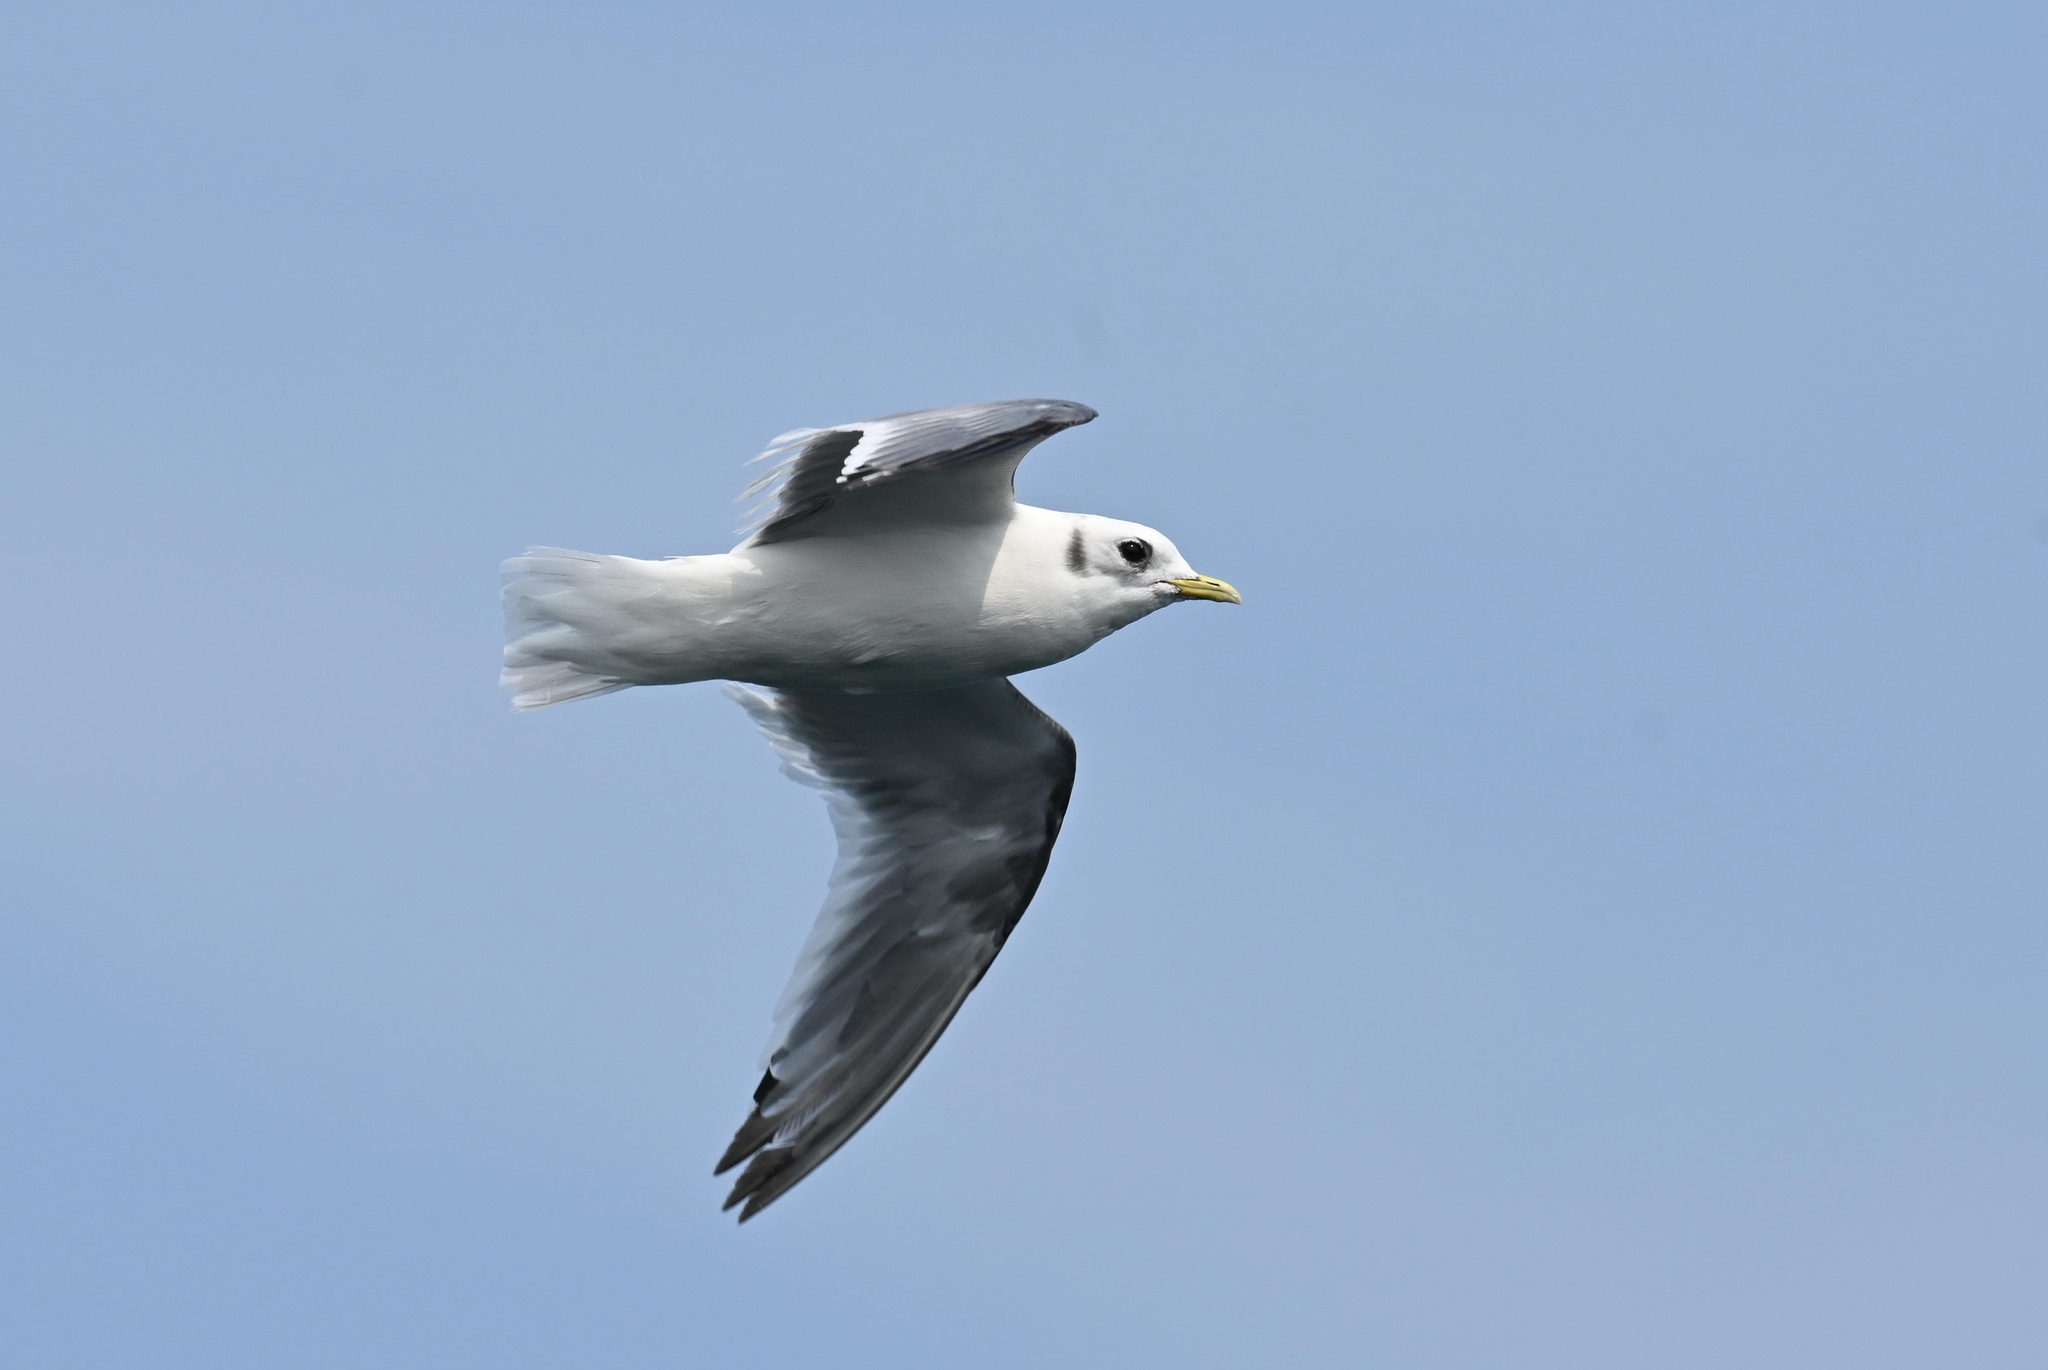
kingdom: Animalia
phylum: Chordata
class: Aves
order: Charadriiformes
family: Laridae
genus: Rissa
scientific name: Rissa tridactyla
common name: Black-legged kittiwake
